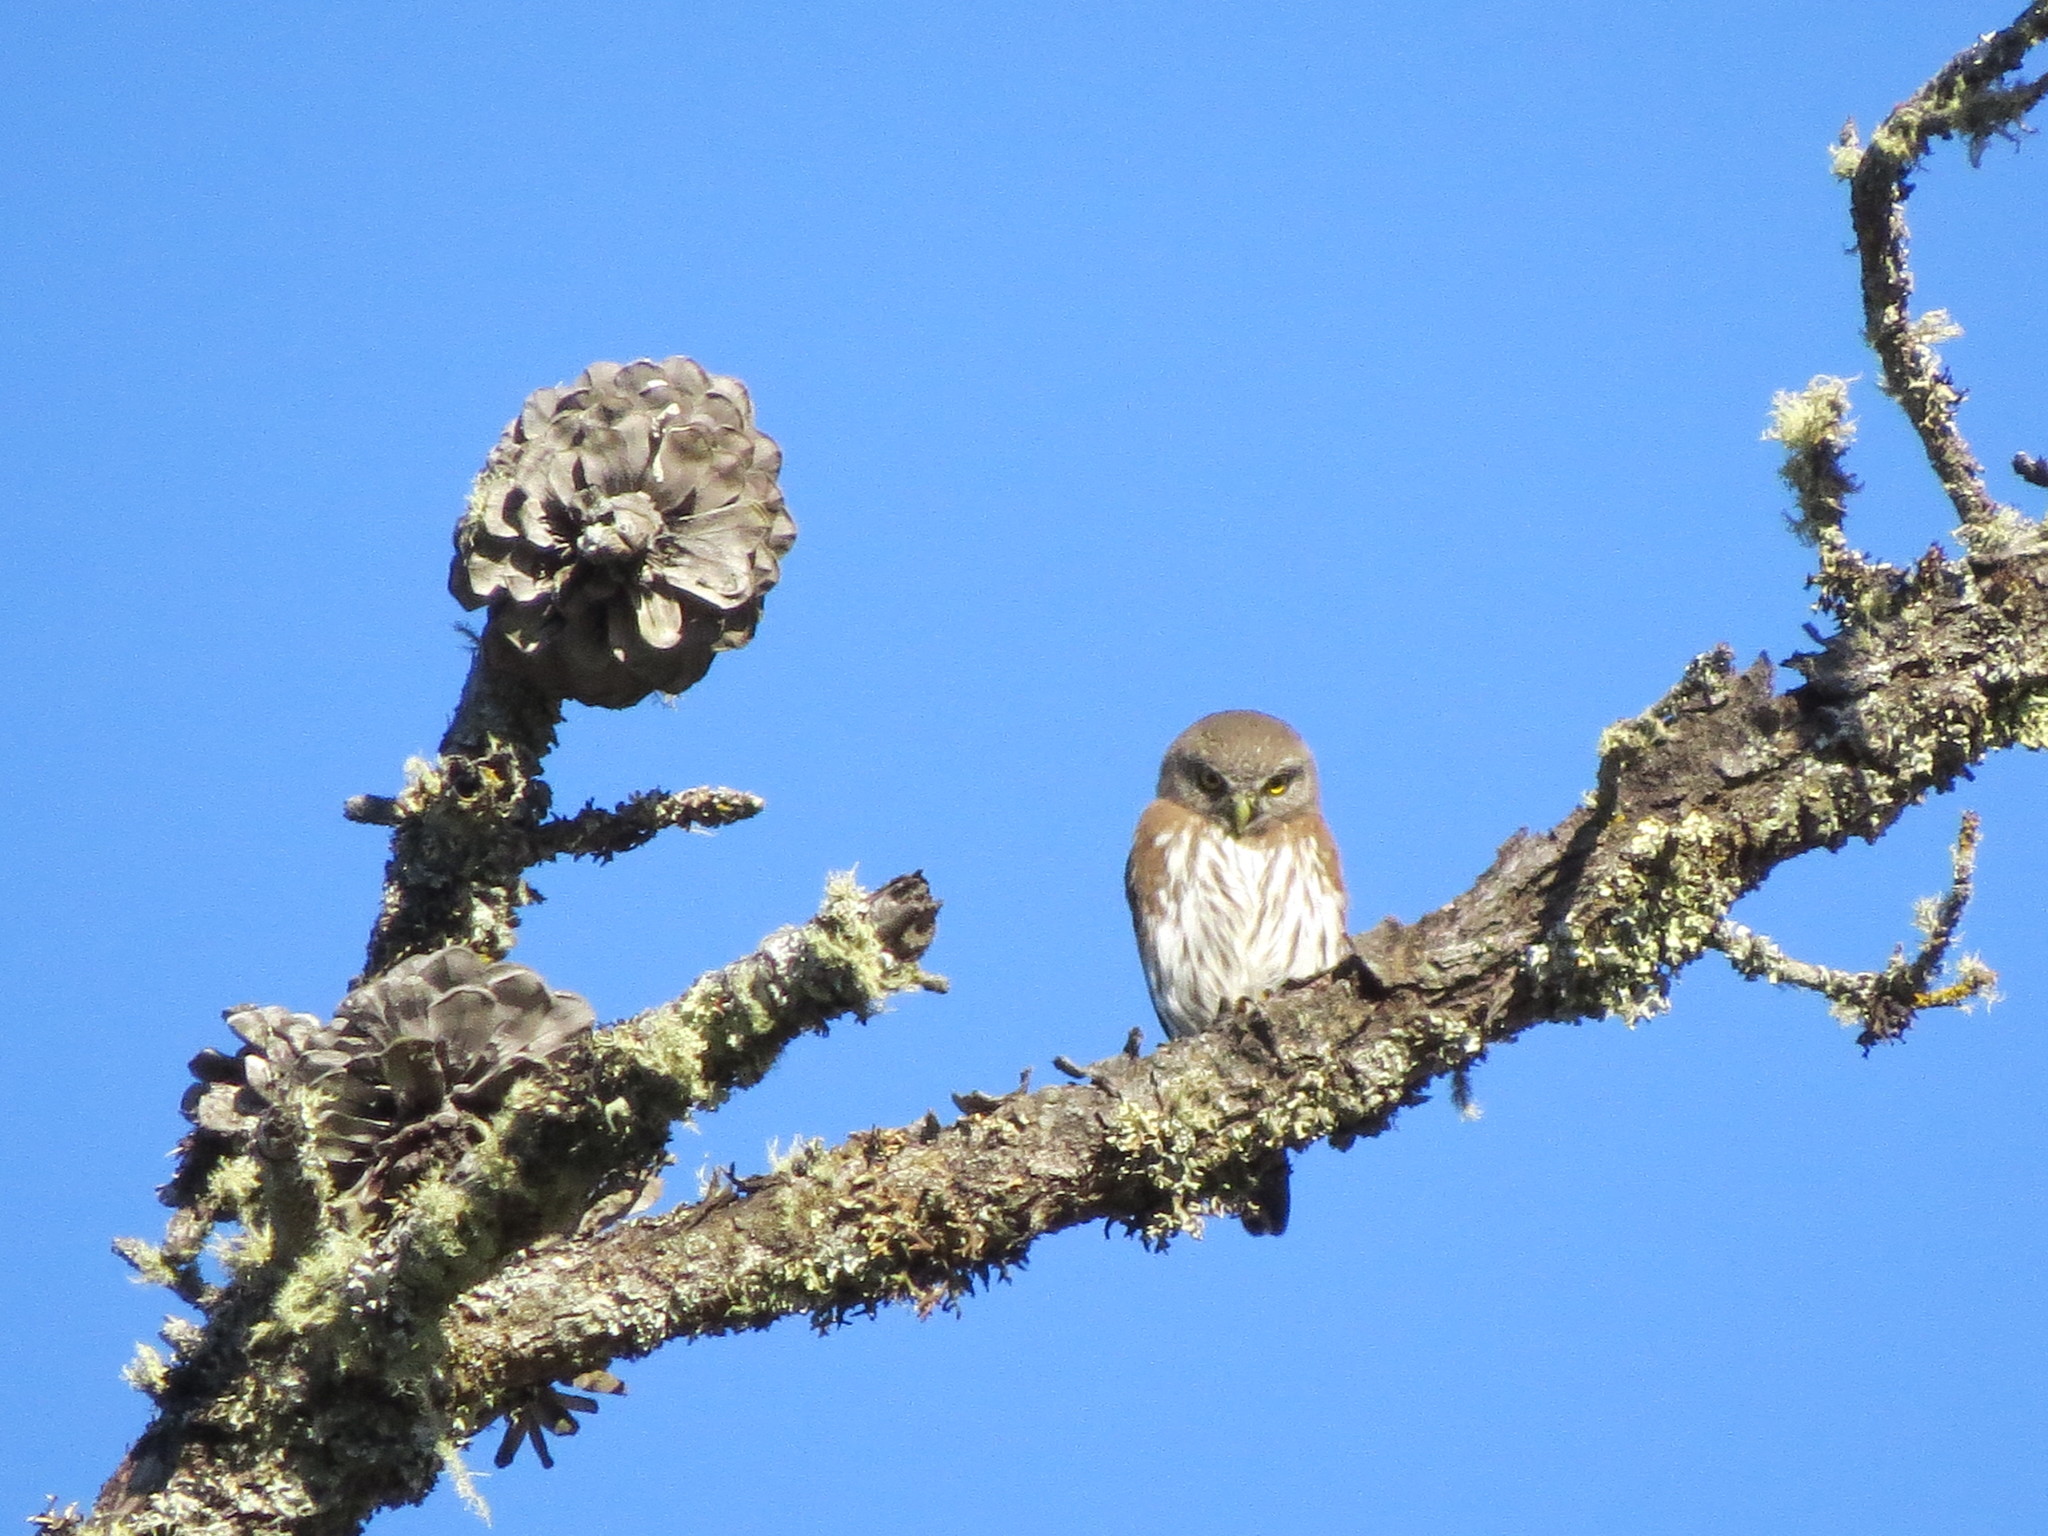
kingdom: Animalia
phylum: Chordata
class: Aves
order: Strigiformes
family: Strigidae
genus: Glaucidium
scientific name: Glaucidium gnoma
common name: Northern pygmy-owl
